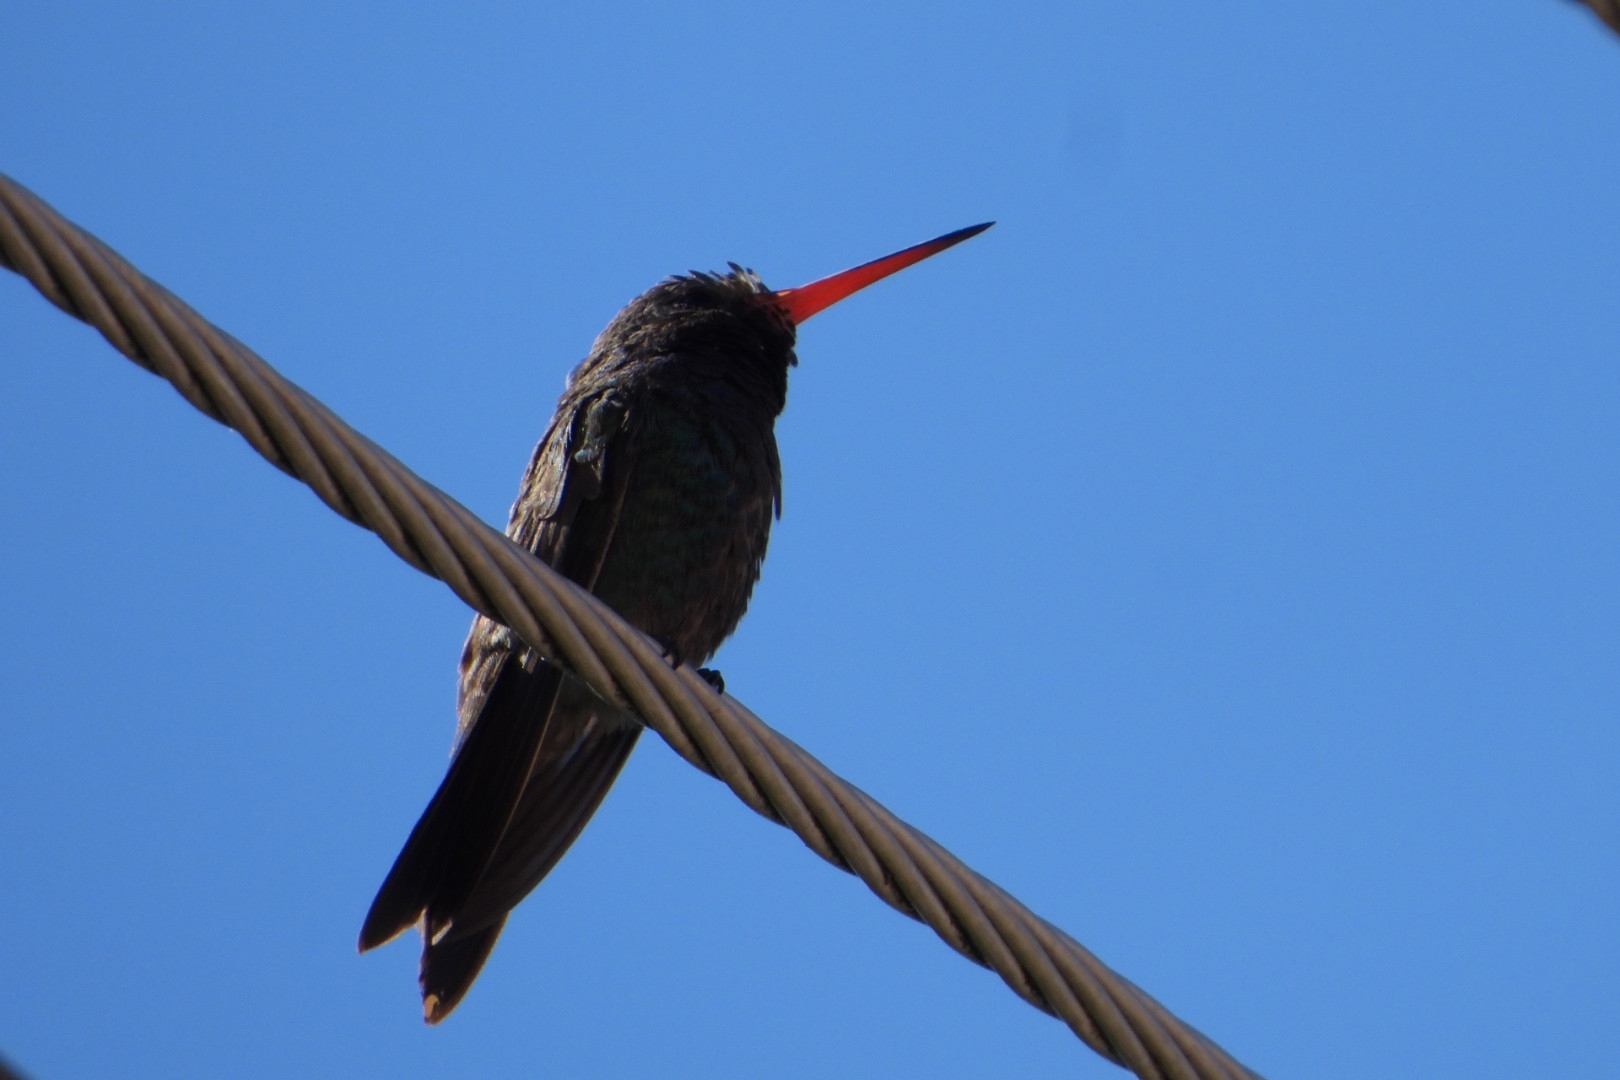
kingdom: Animalia
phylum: Chordata
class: Aves
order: Apodiformes
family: Trochilidae
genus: Cynanthus
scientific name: Cynanthus latirostris
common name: Broad-billed hummingbird
